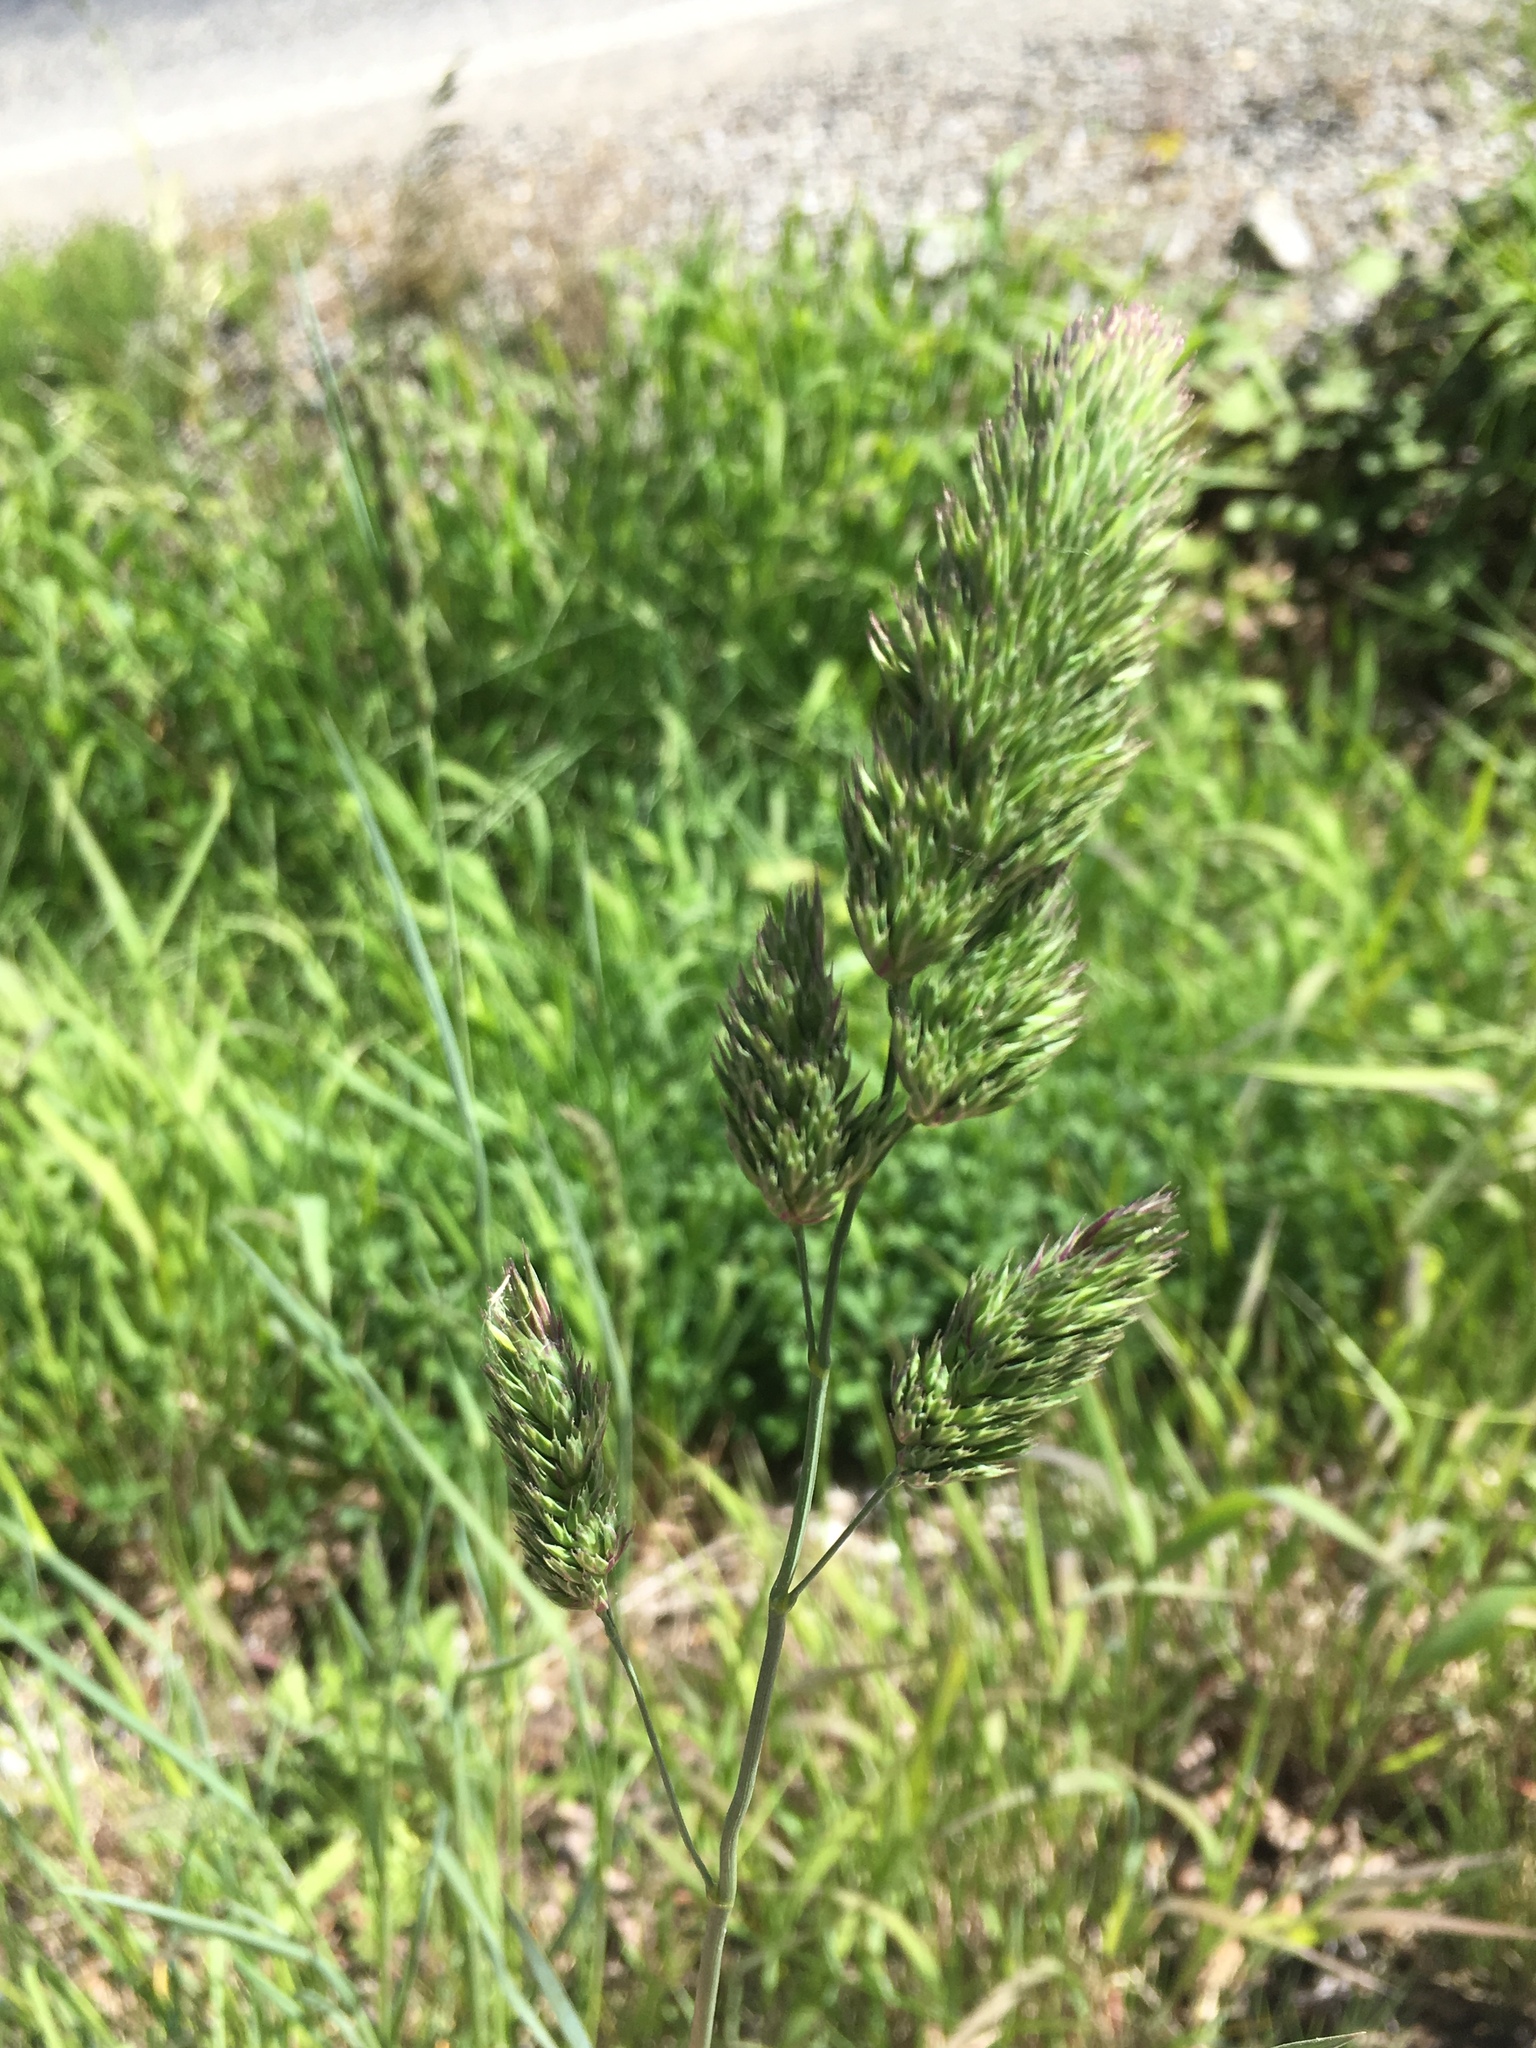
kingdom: Plantae
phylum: Tracheophyta
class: Liliopsida
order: Poales
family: Poaceae
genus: Dactylis
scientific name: Dactylis glomerata
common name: Orchardgrass
